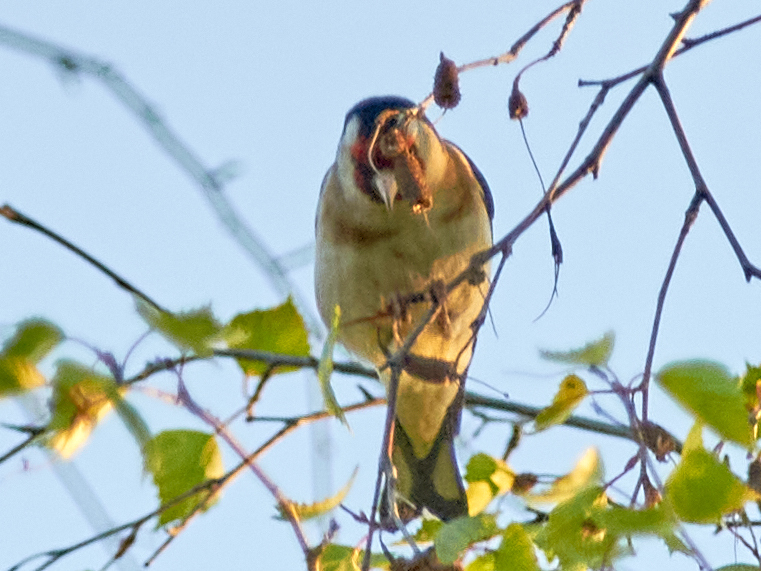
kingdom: Animalia
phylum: Chordata
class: Aves
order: Passeriformes
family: Fringillidae
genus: Carduelis
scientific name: Carduelis carduelis
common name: European goldfinch
